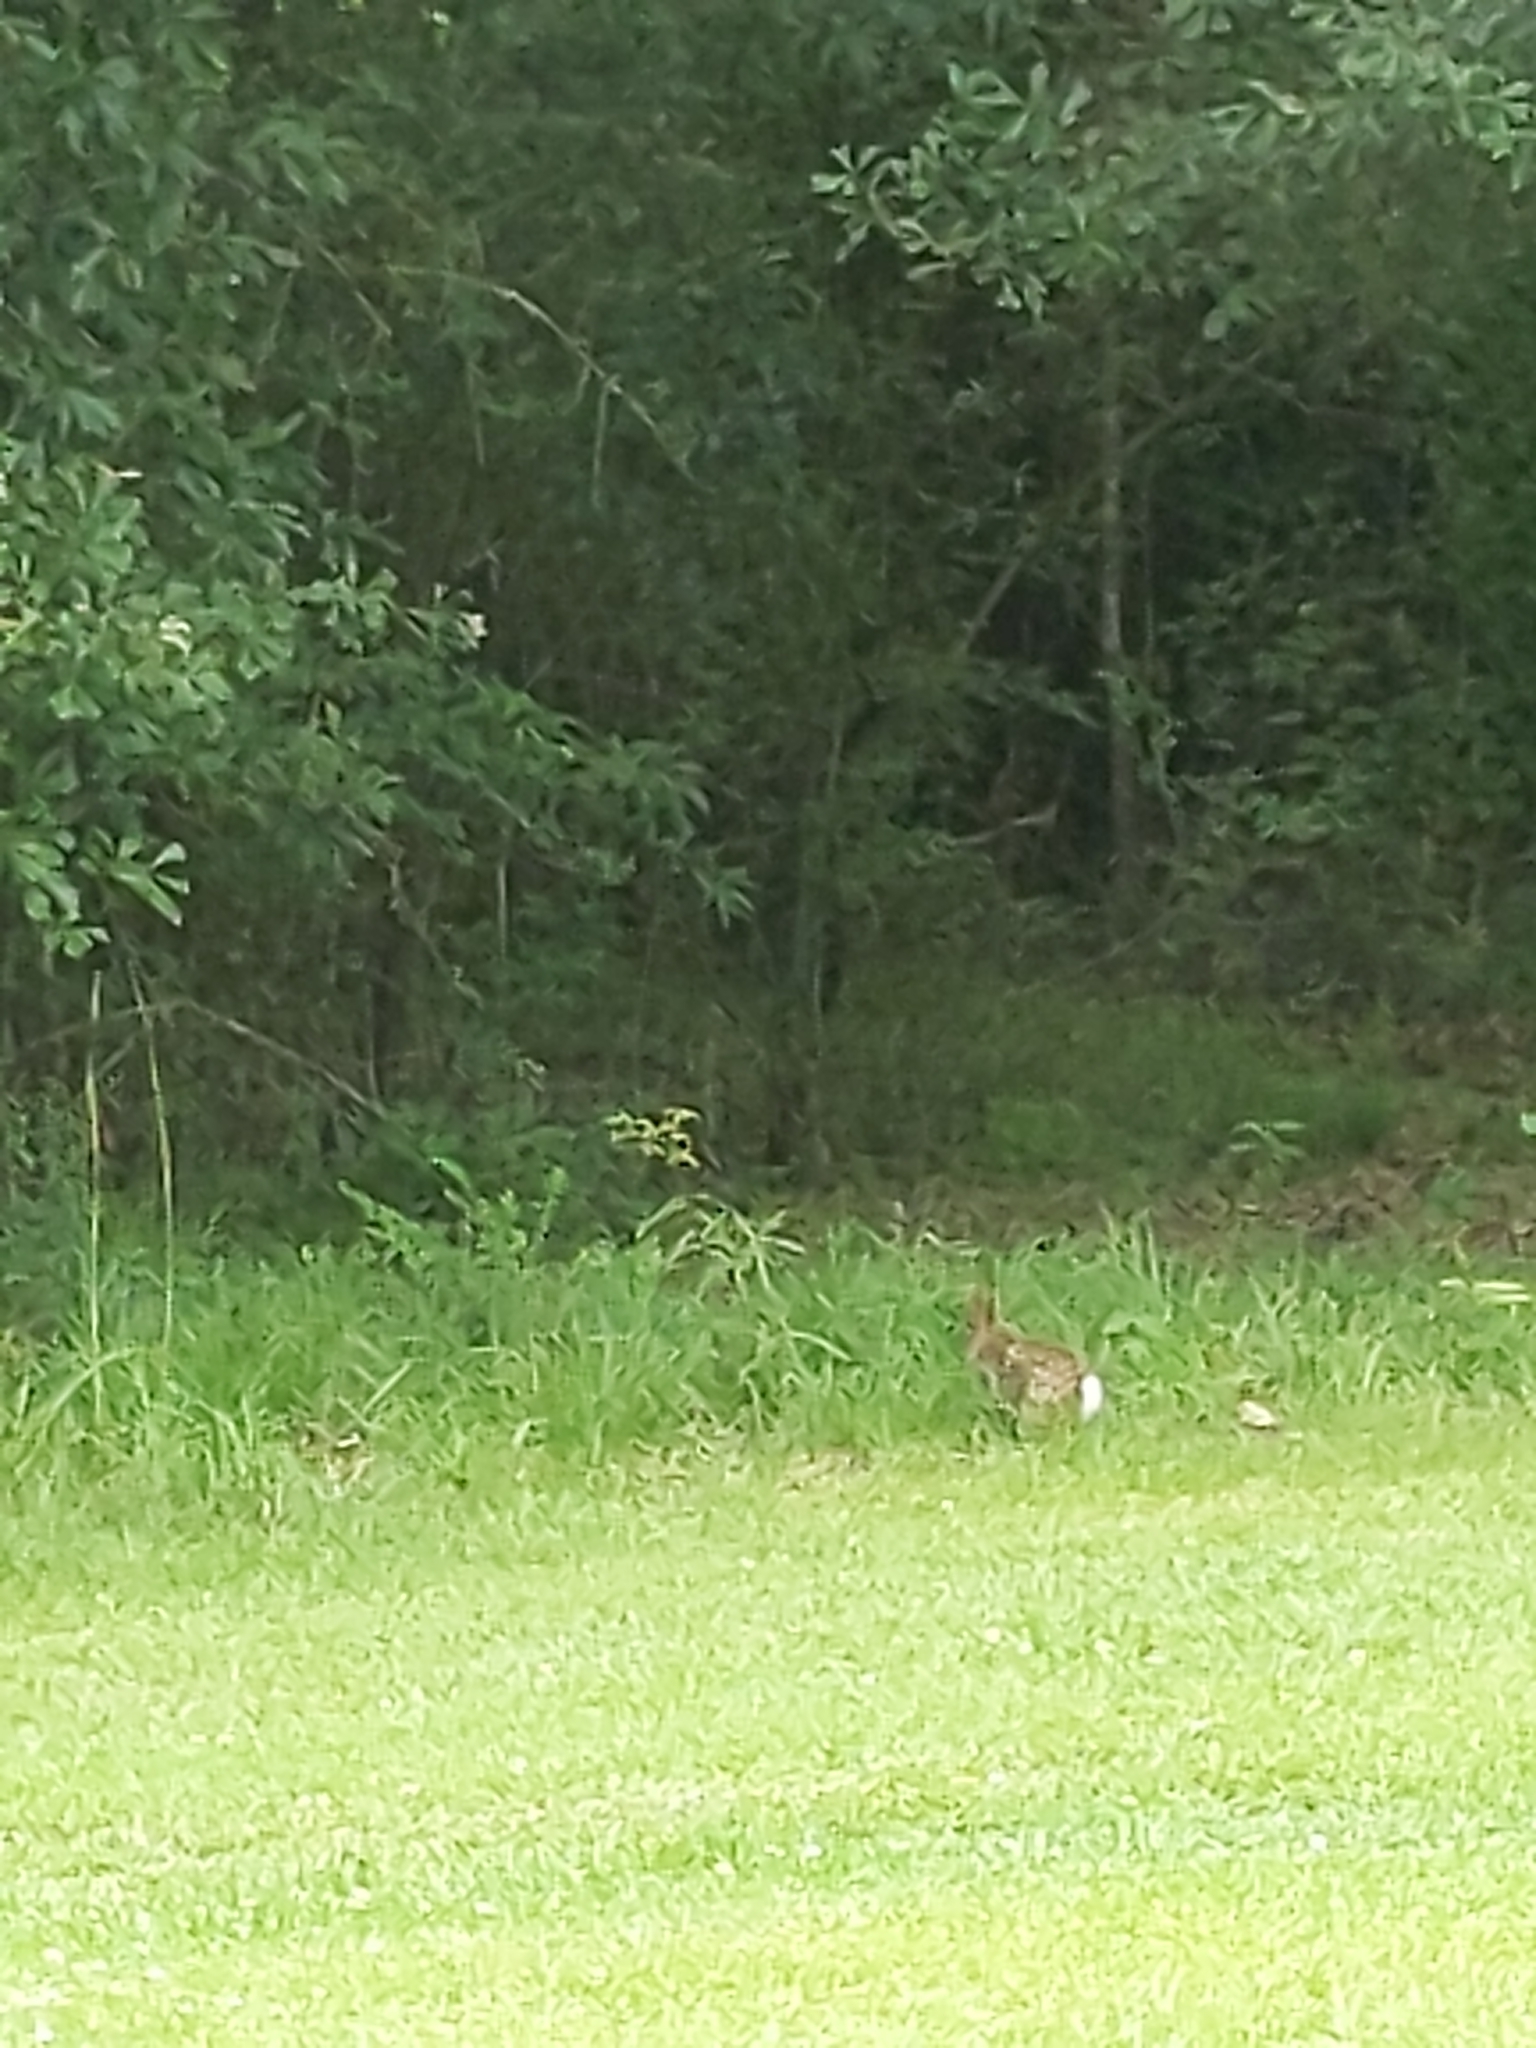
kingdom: Animalia
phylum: Chordata
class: Mammalia
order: Lagomorpha
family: Leporidae
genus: Sylvilagus
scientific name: Sylvilagus floridanus
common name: Eastern cottontail
